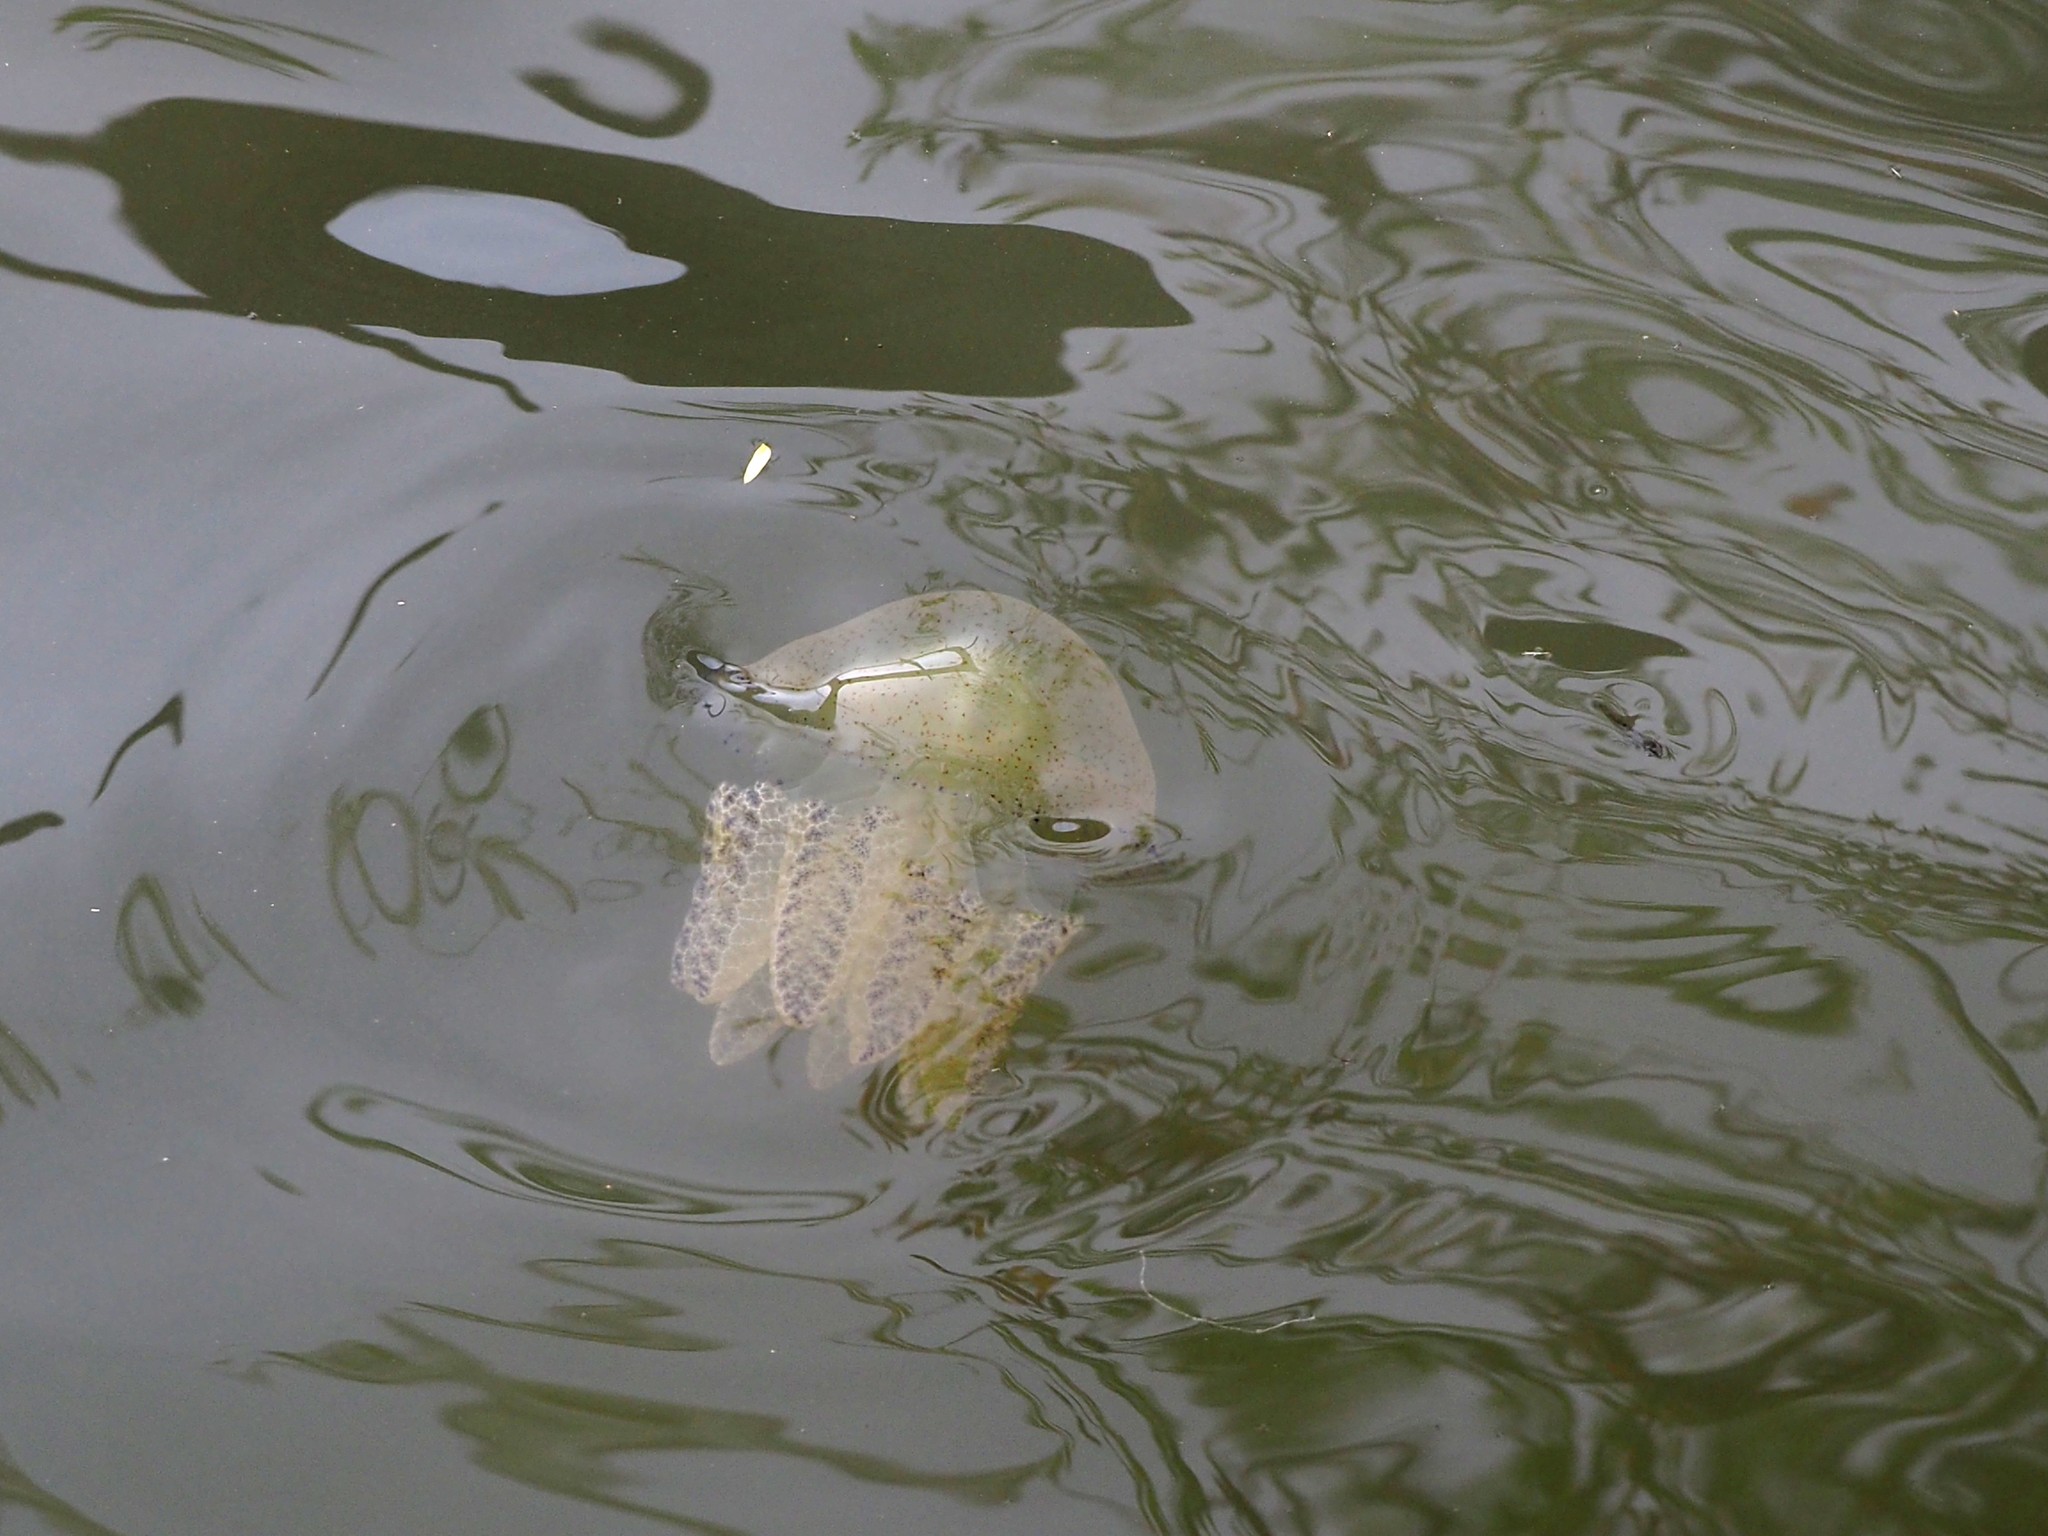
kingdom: Animalia
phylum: Cnidaria
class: Scyphozoa
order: Rhizostomeae
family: Catostylidae
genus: Catostylus
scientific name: Catostylus townsendi
